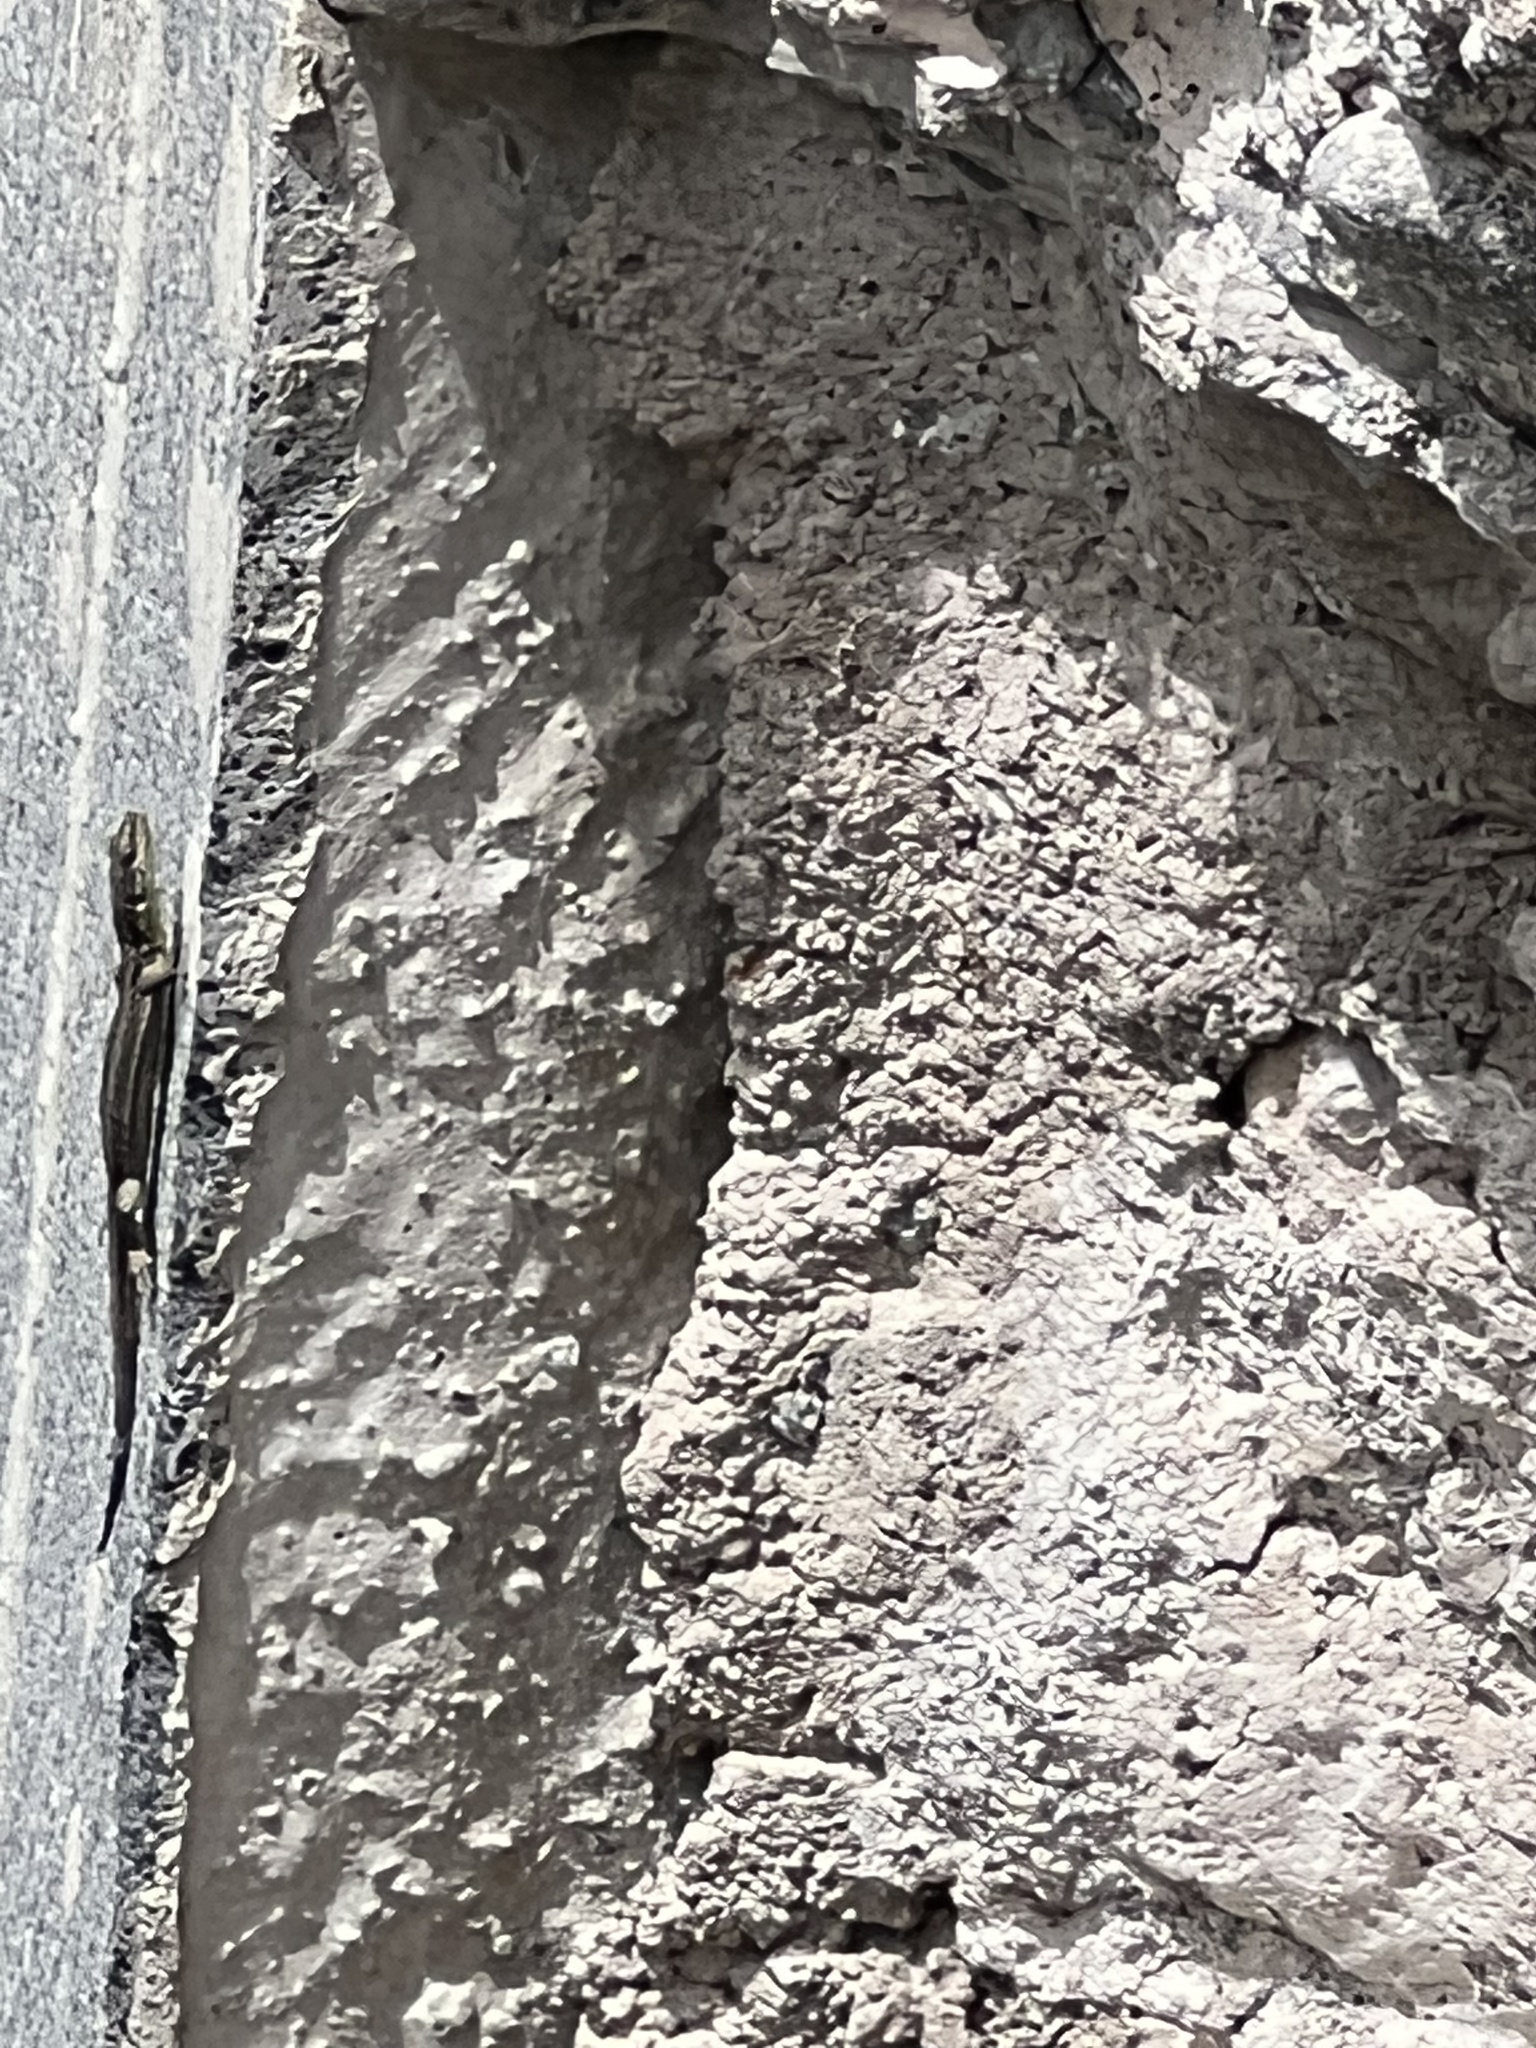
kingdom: Animalia
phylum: Chordata
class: Squamata
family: Lacertidae
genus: Darevskia
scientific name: Darevskia praticola
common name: Meadow lizard
